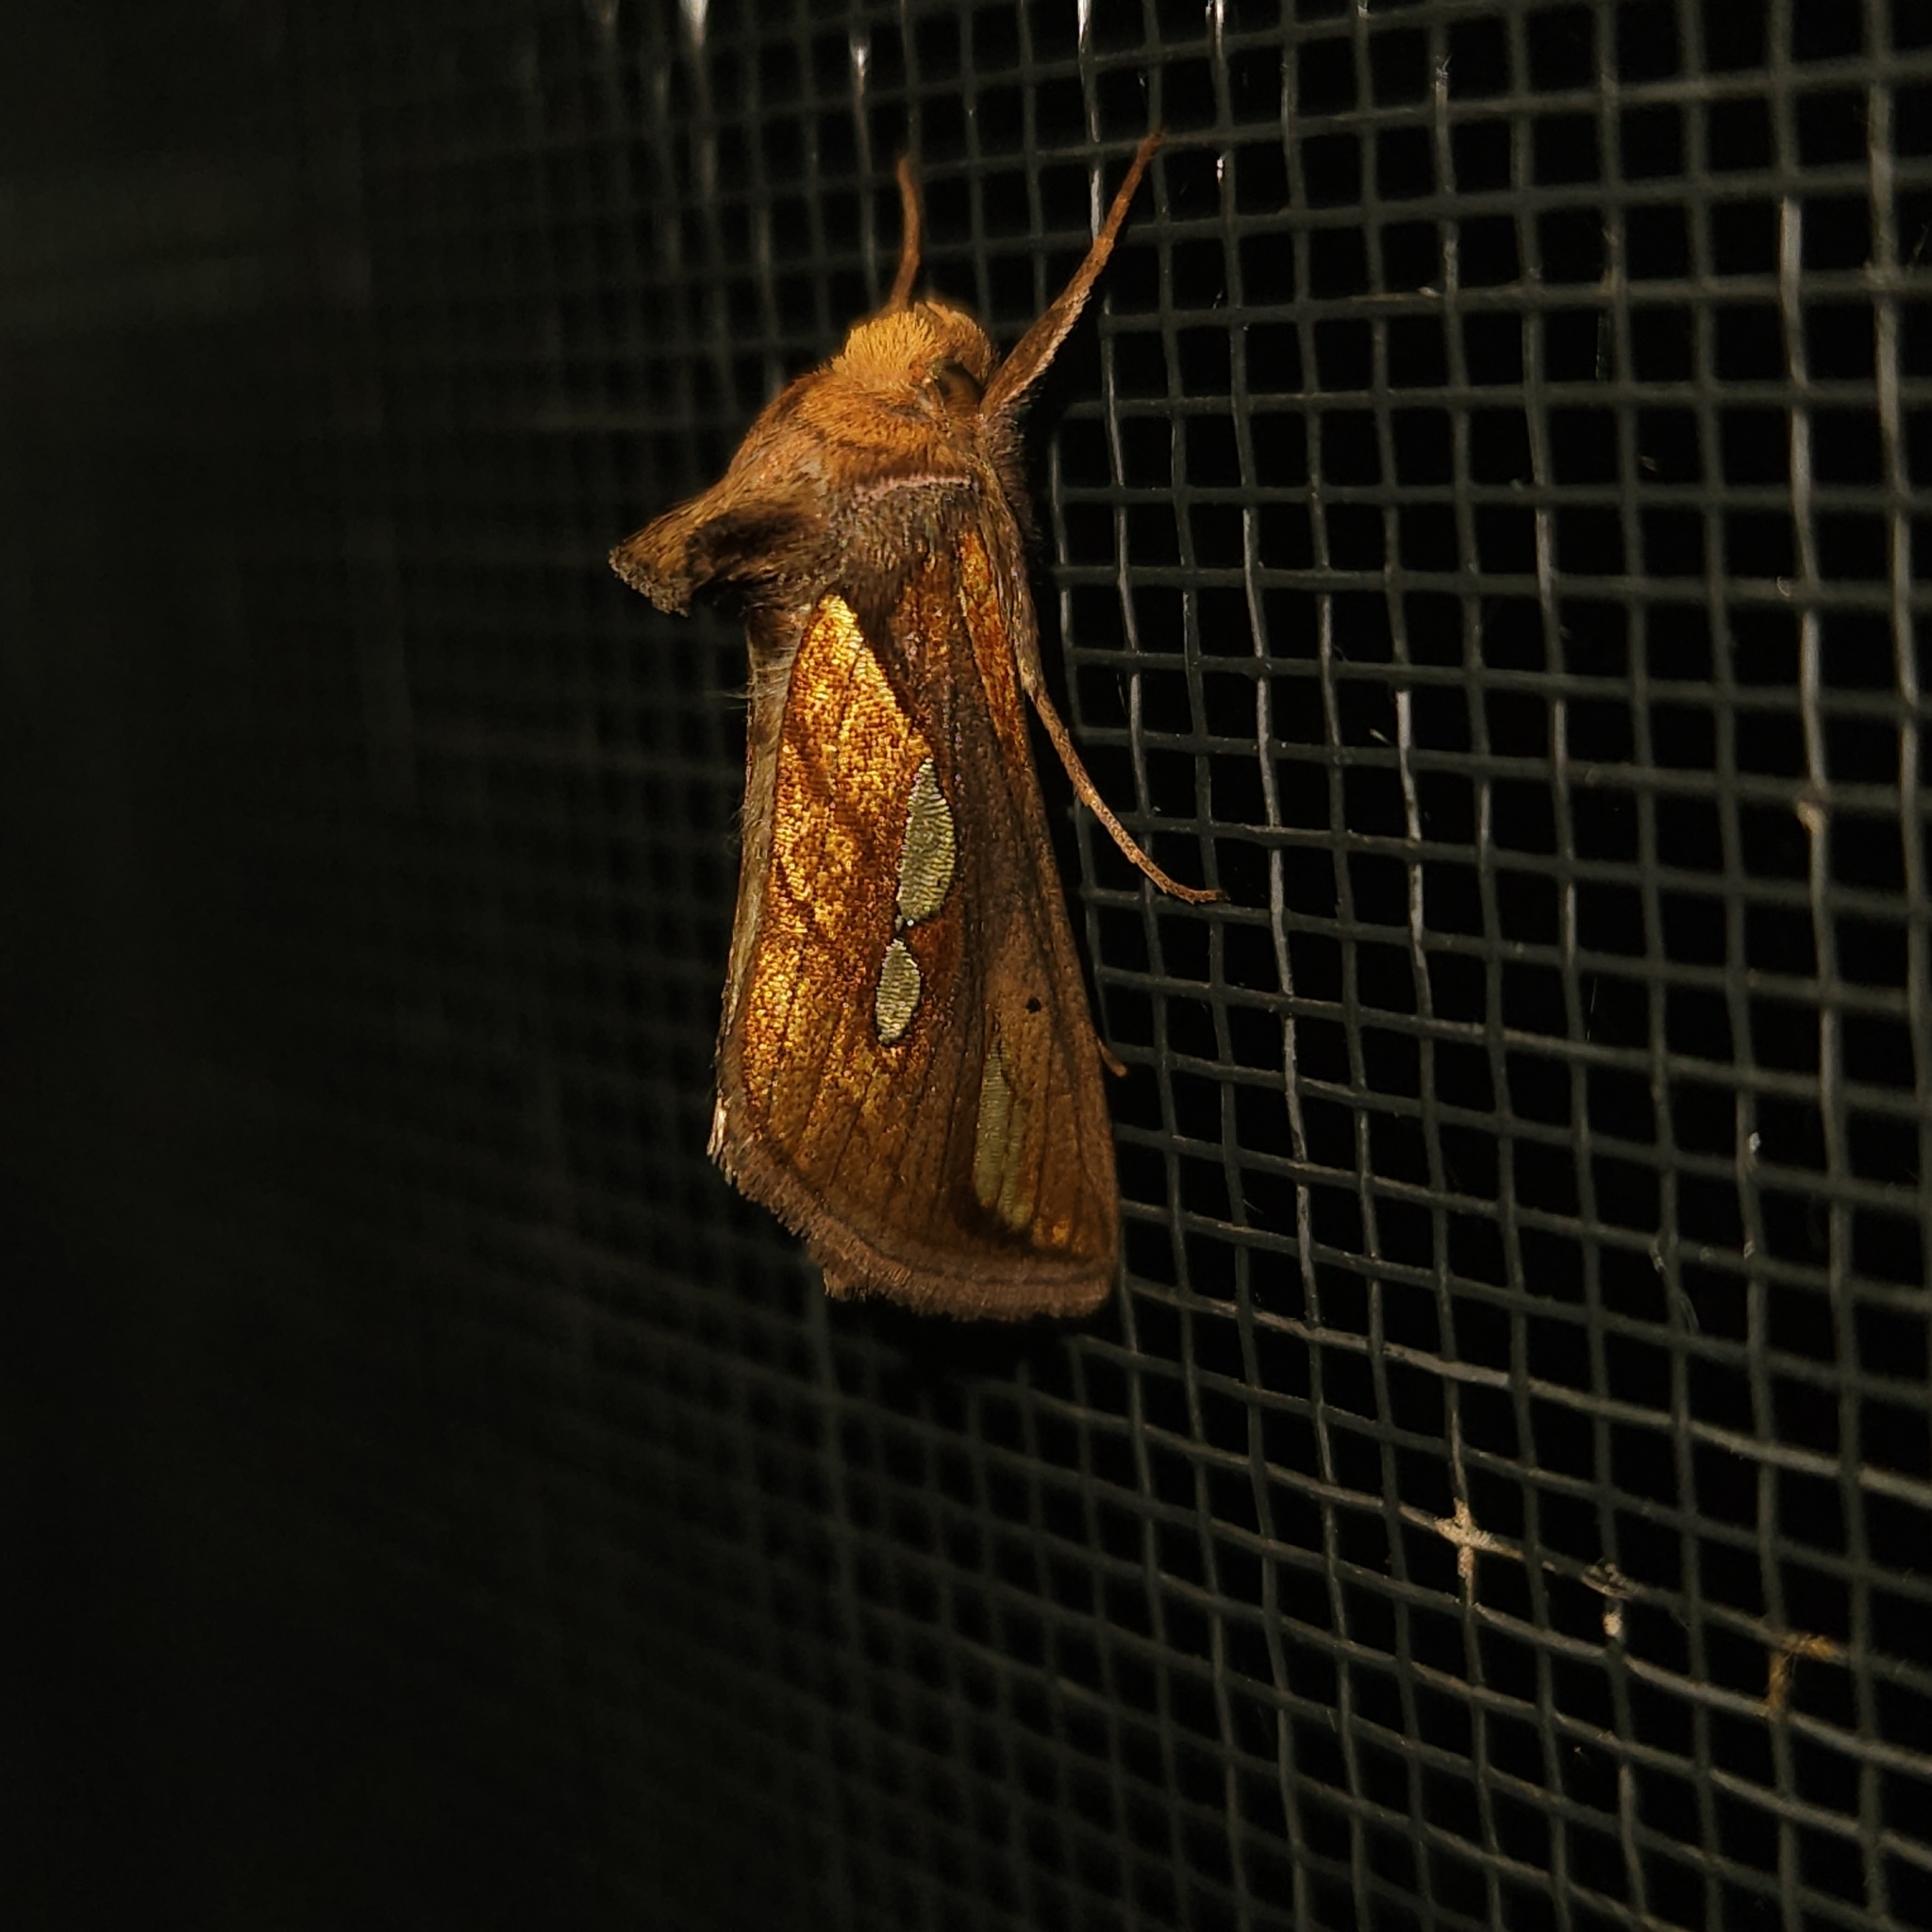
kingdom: Animalia
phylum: Arthropoda
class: Insecta
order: Lepidoptera
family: Noctuidae
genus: Plusia
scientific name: Plusia putnami
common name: Lempke's gold spot
